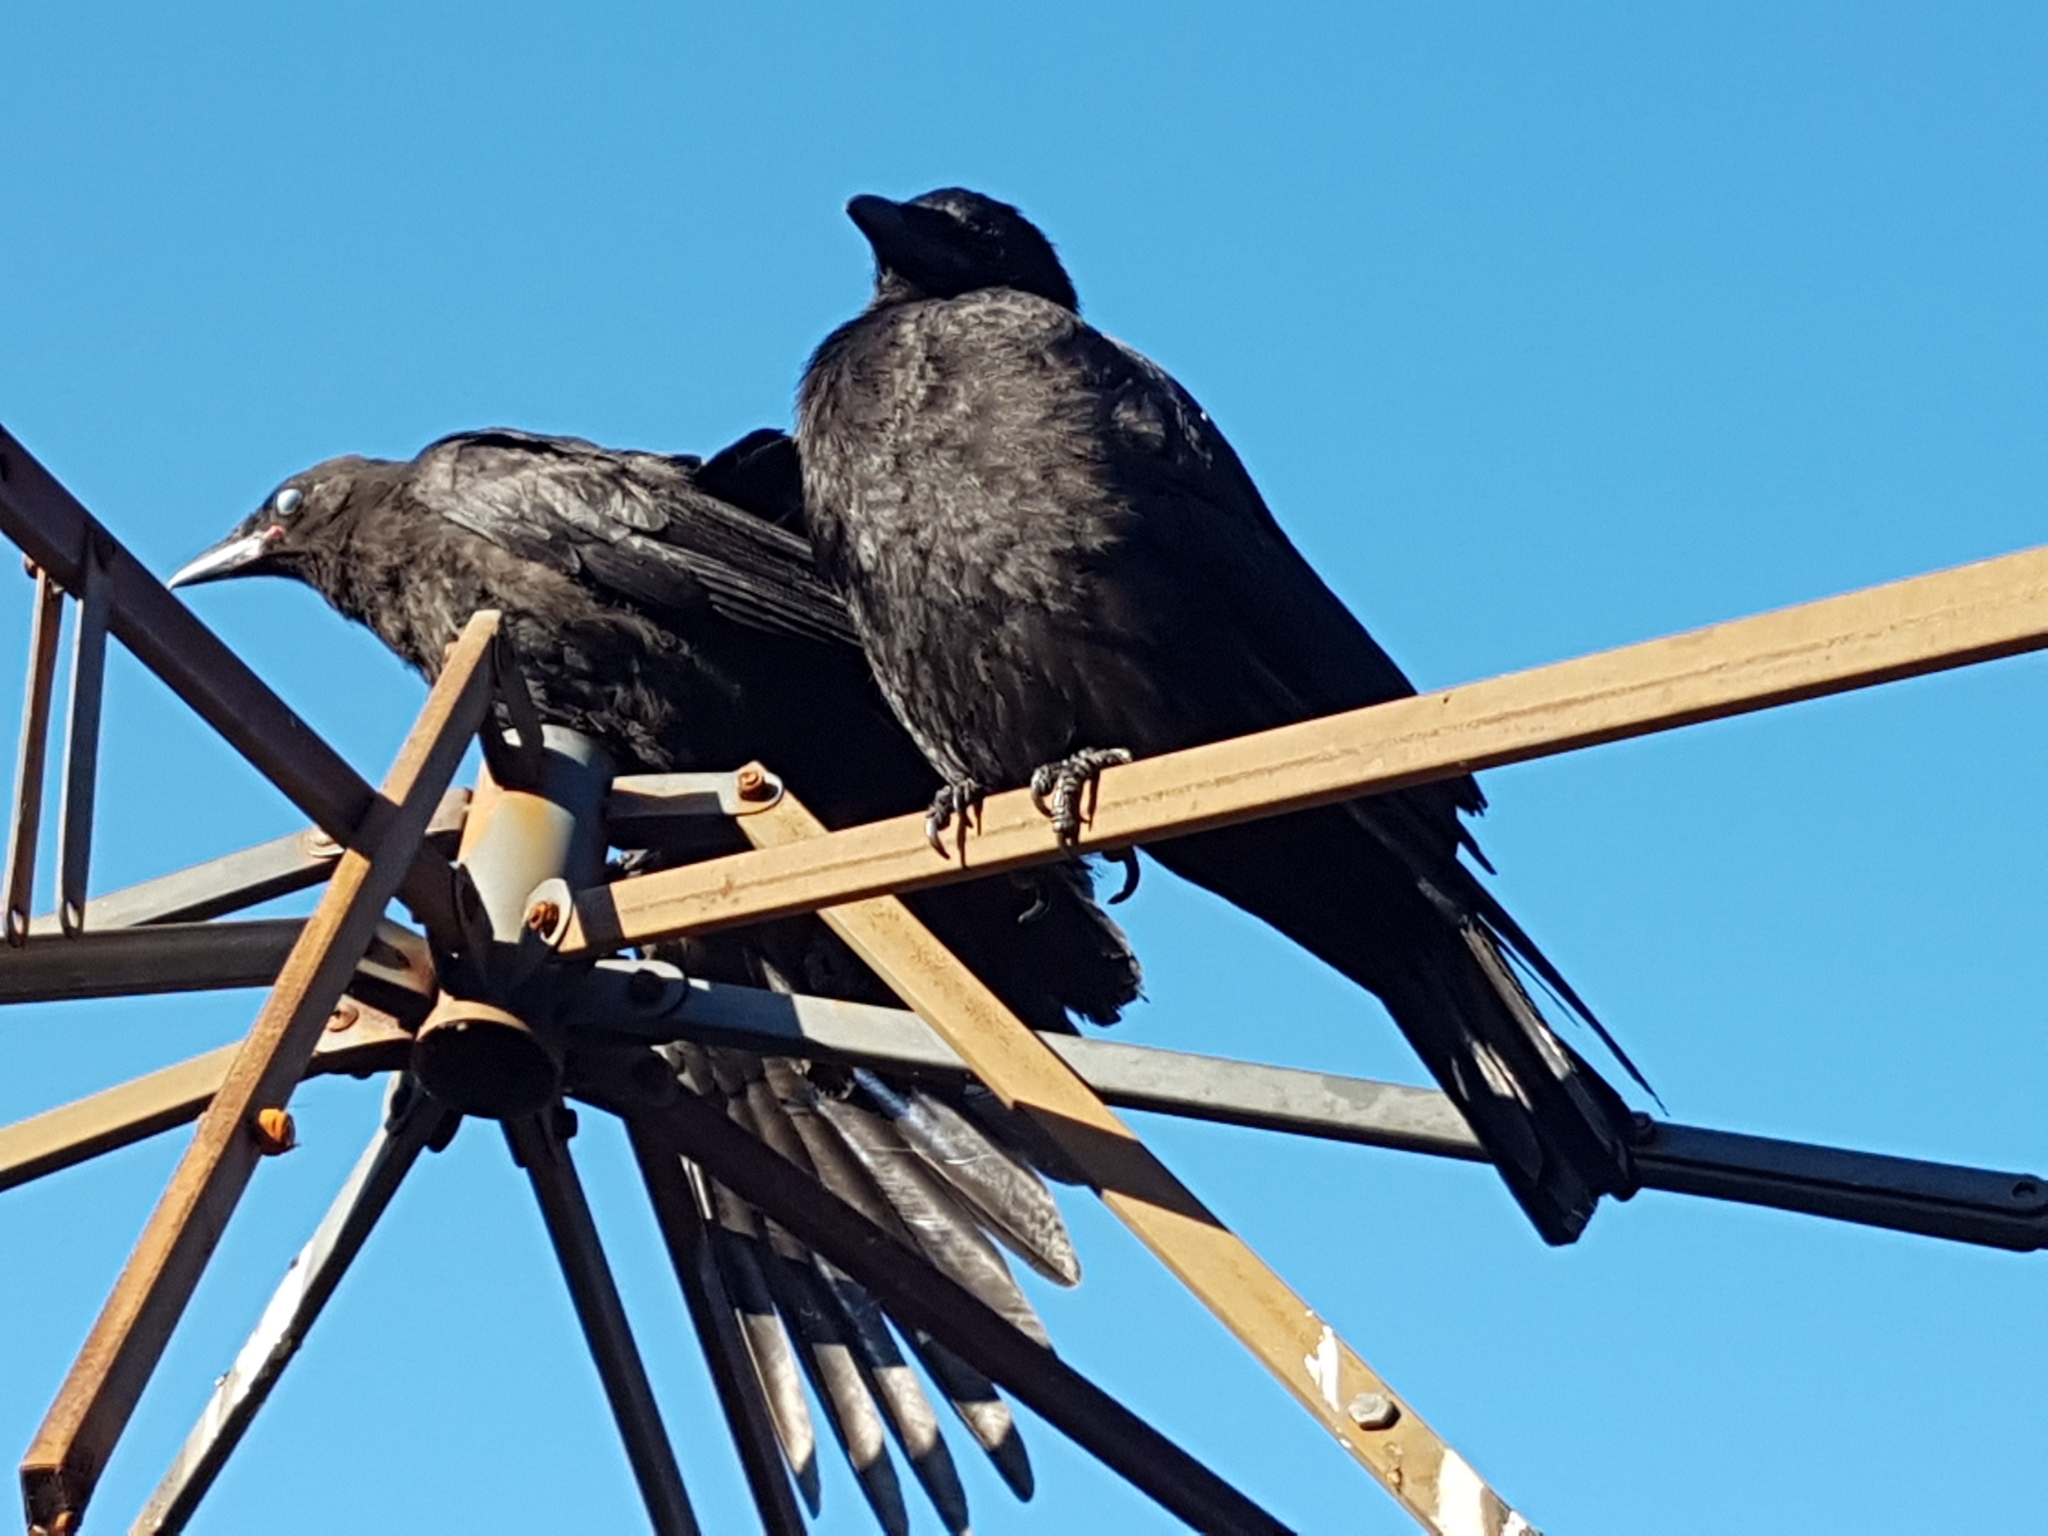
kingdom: Animalia
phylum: Chordata
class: Aves
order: Passeriformes
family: Corvidae
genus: Corvus
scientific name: Corvus brachyrhynchos
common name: American crow
